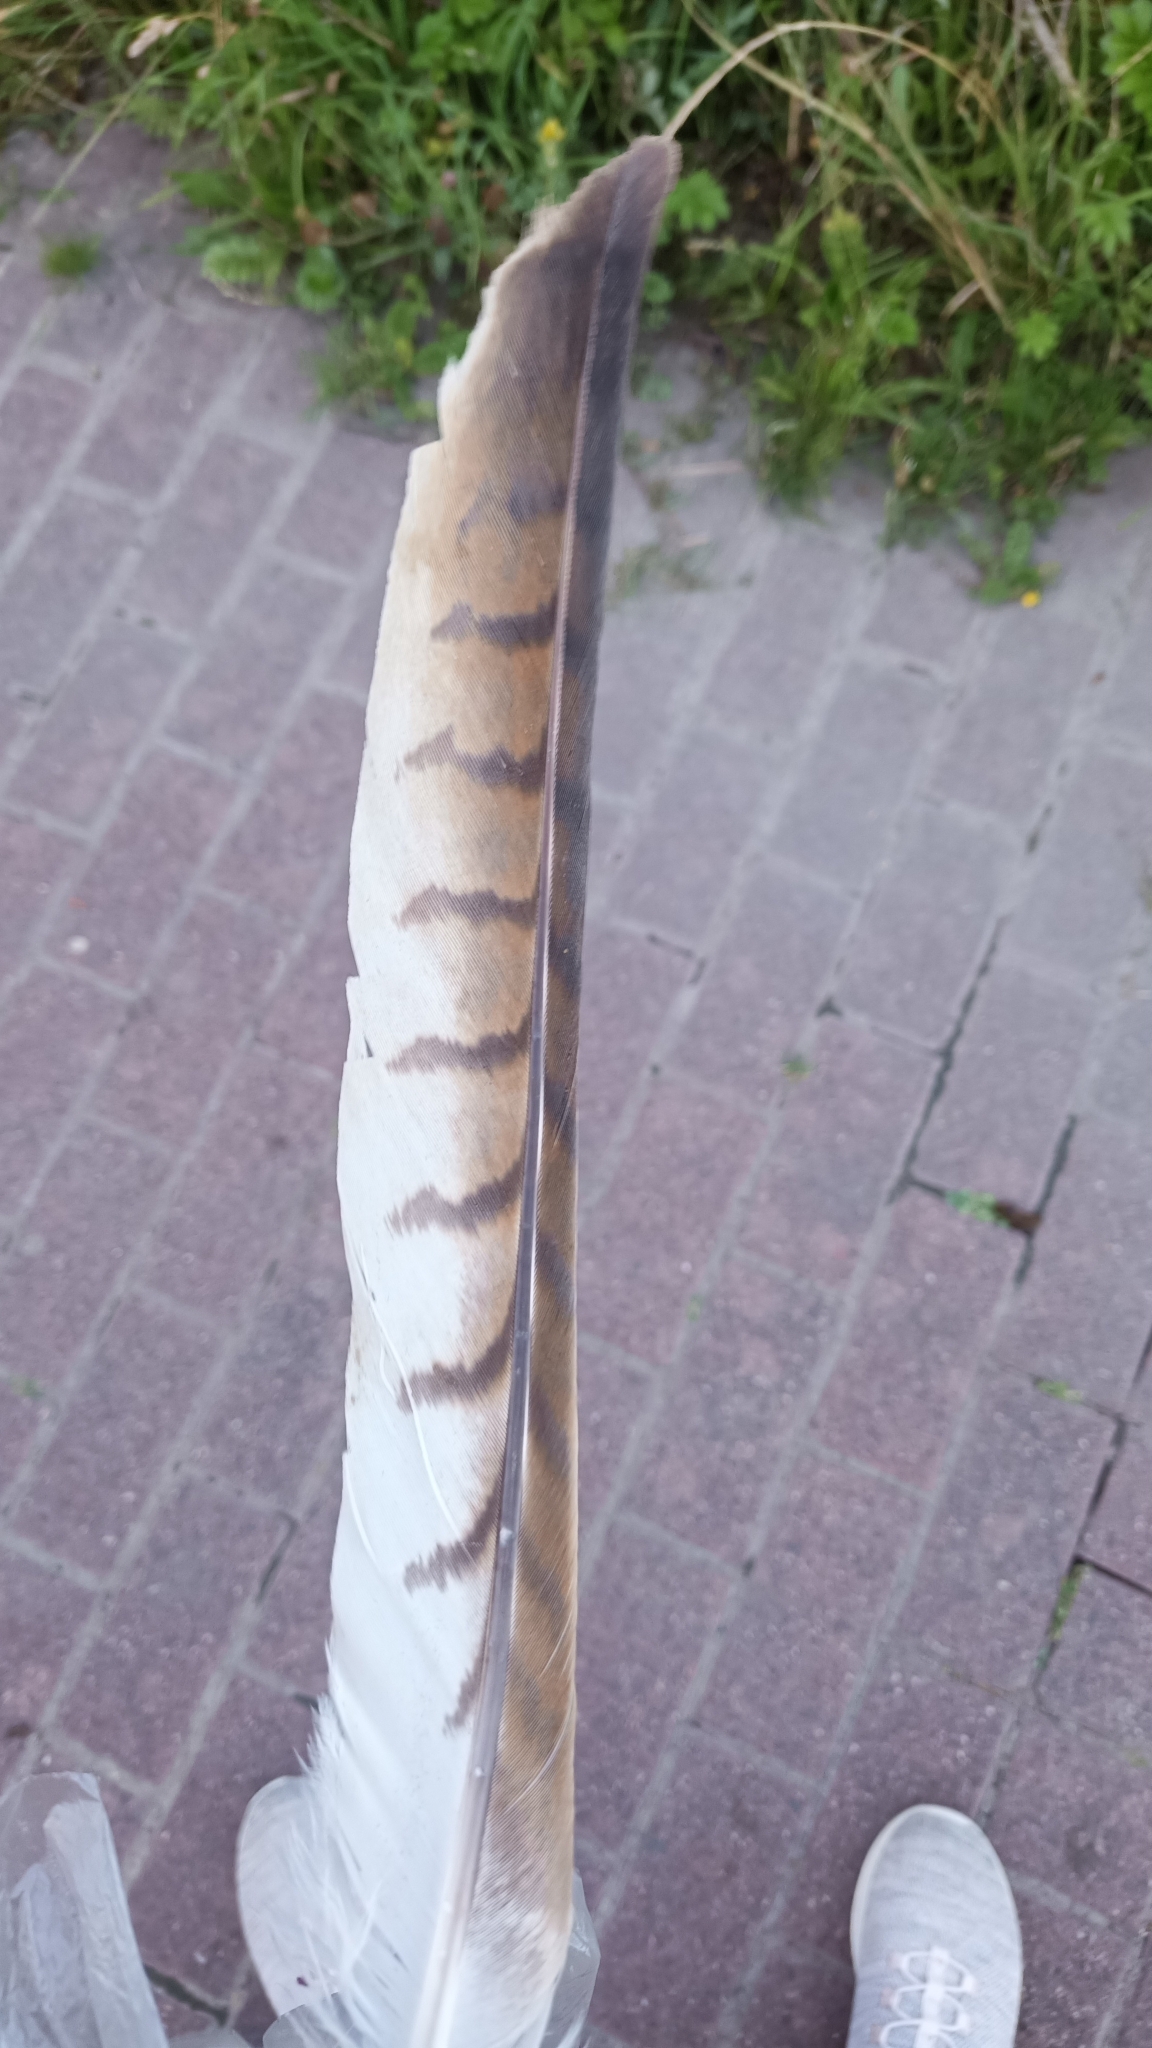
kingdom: Animalia
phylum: Chordata
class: Aves
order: Accipitriformes
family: Accipitridae
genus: Milvus
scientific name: Milvus milvus
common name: Red kite
